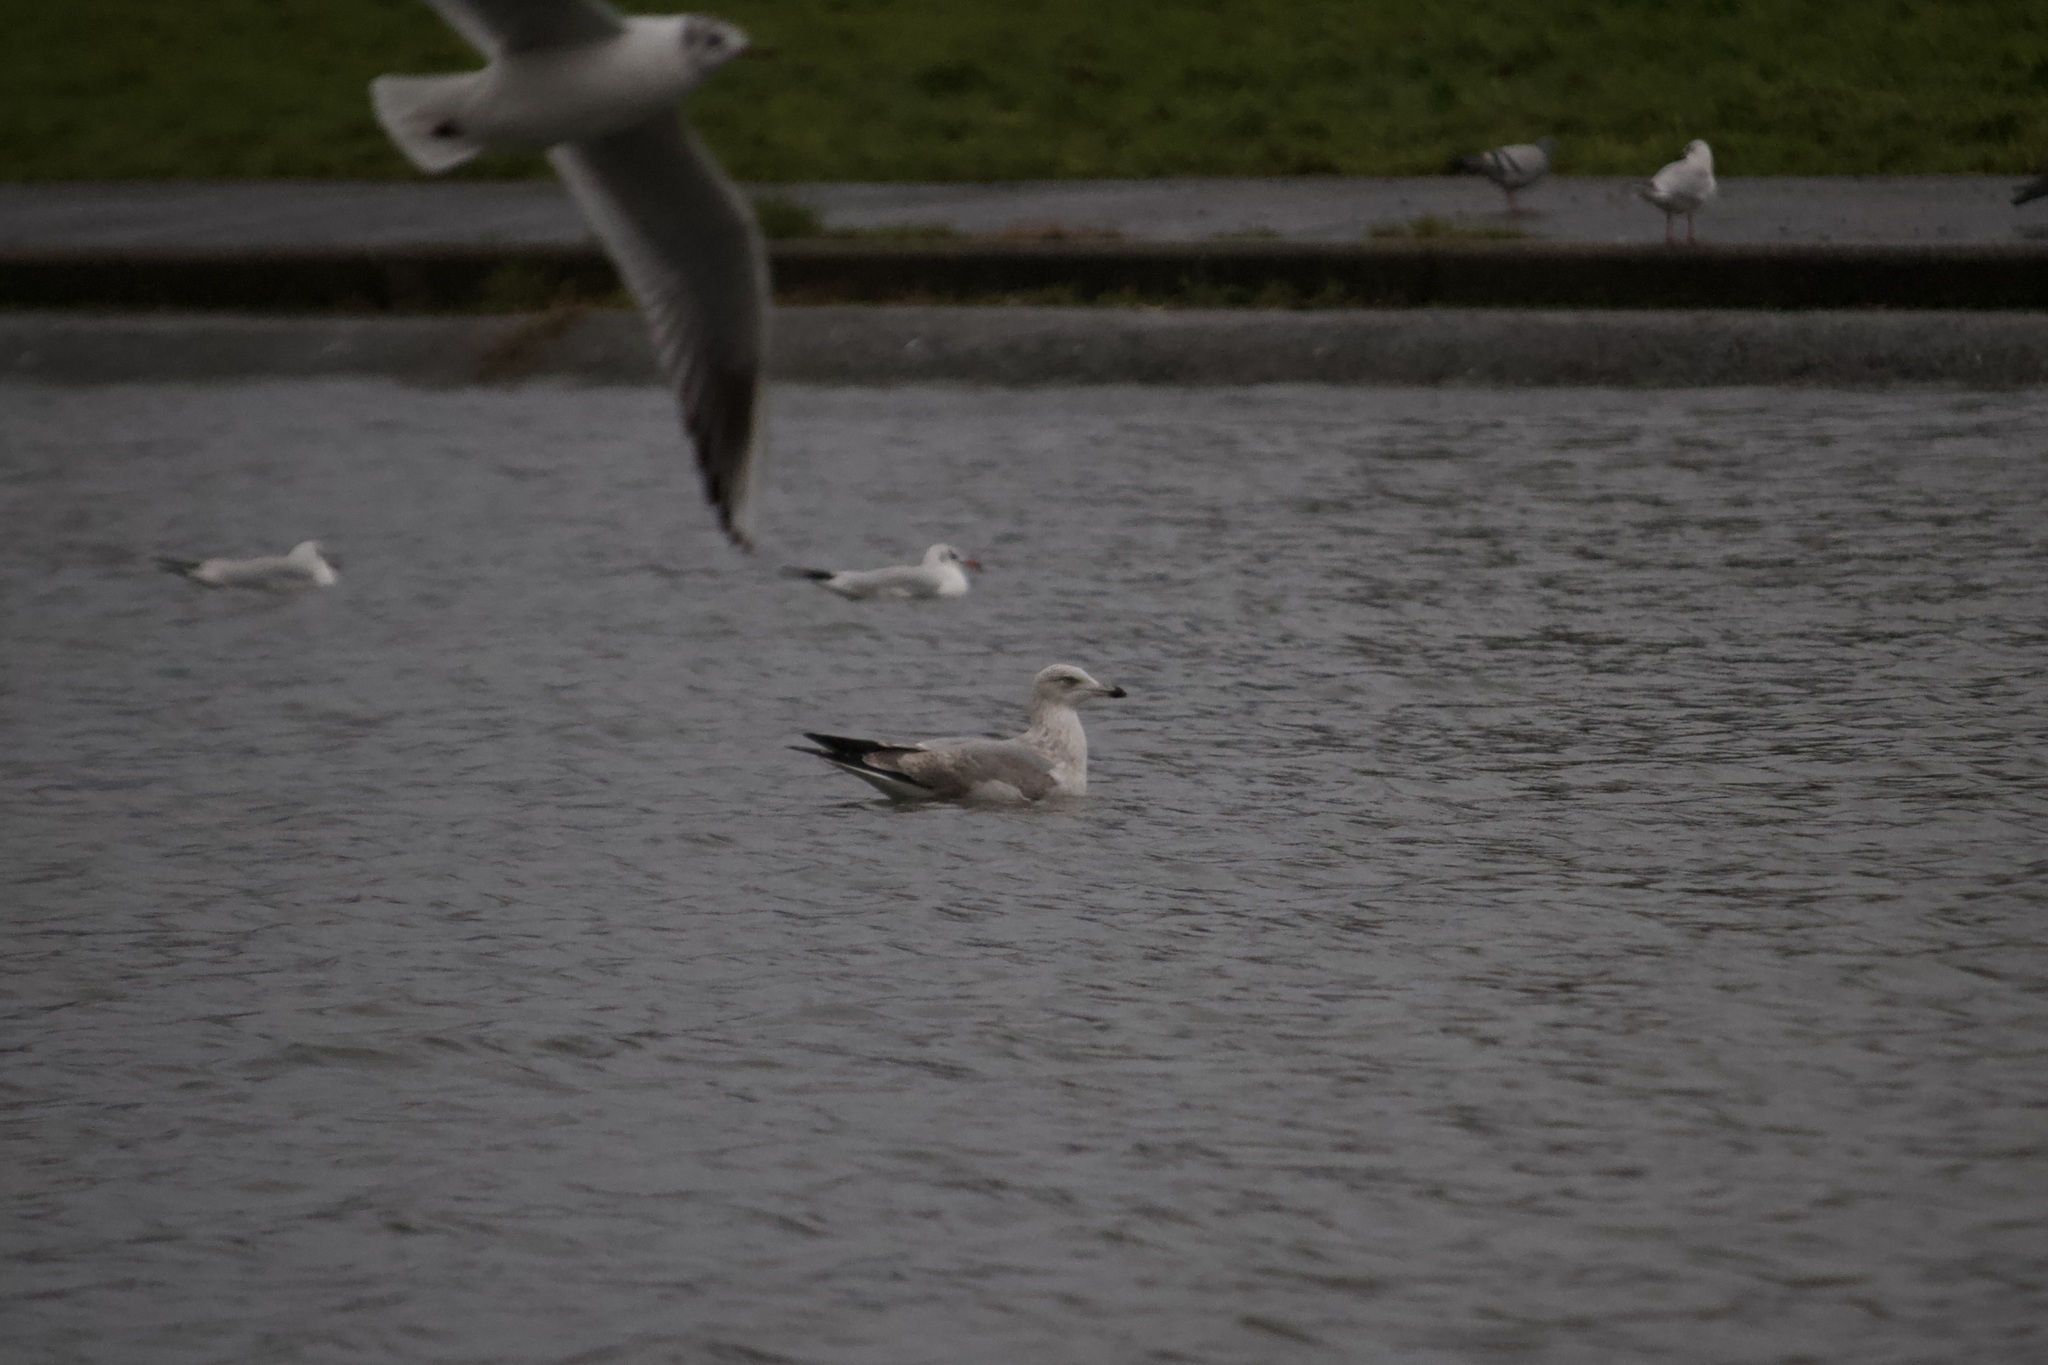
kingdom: Animalia
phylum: Chordata
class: Aves
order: Charadriiformes
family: Laridae
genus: Larus
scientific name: Larus argentatus
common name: Herring gull
